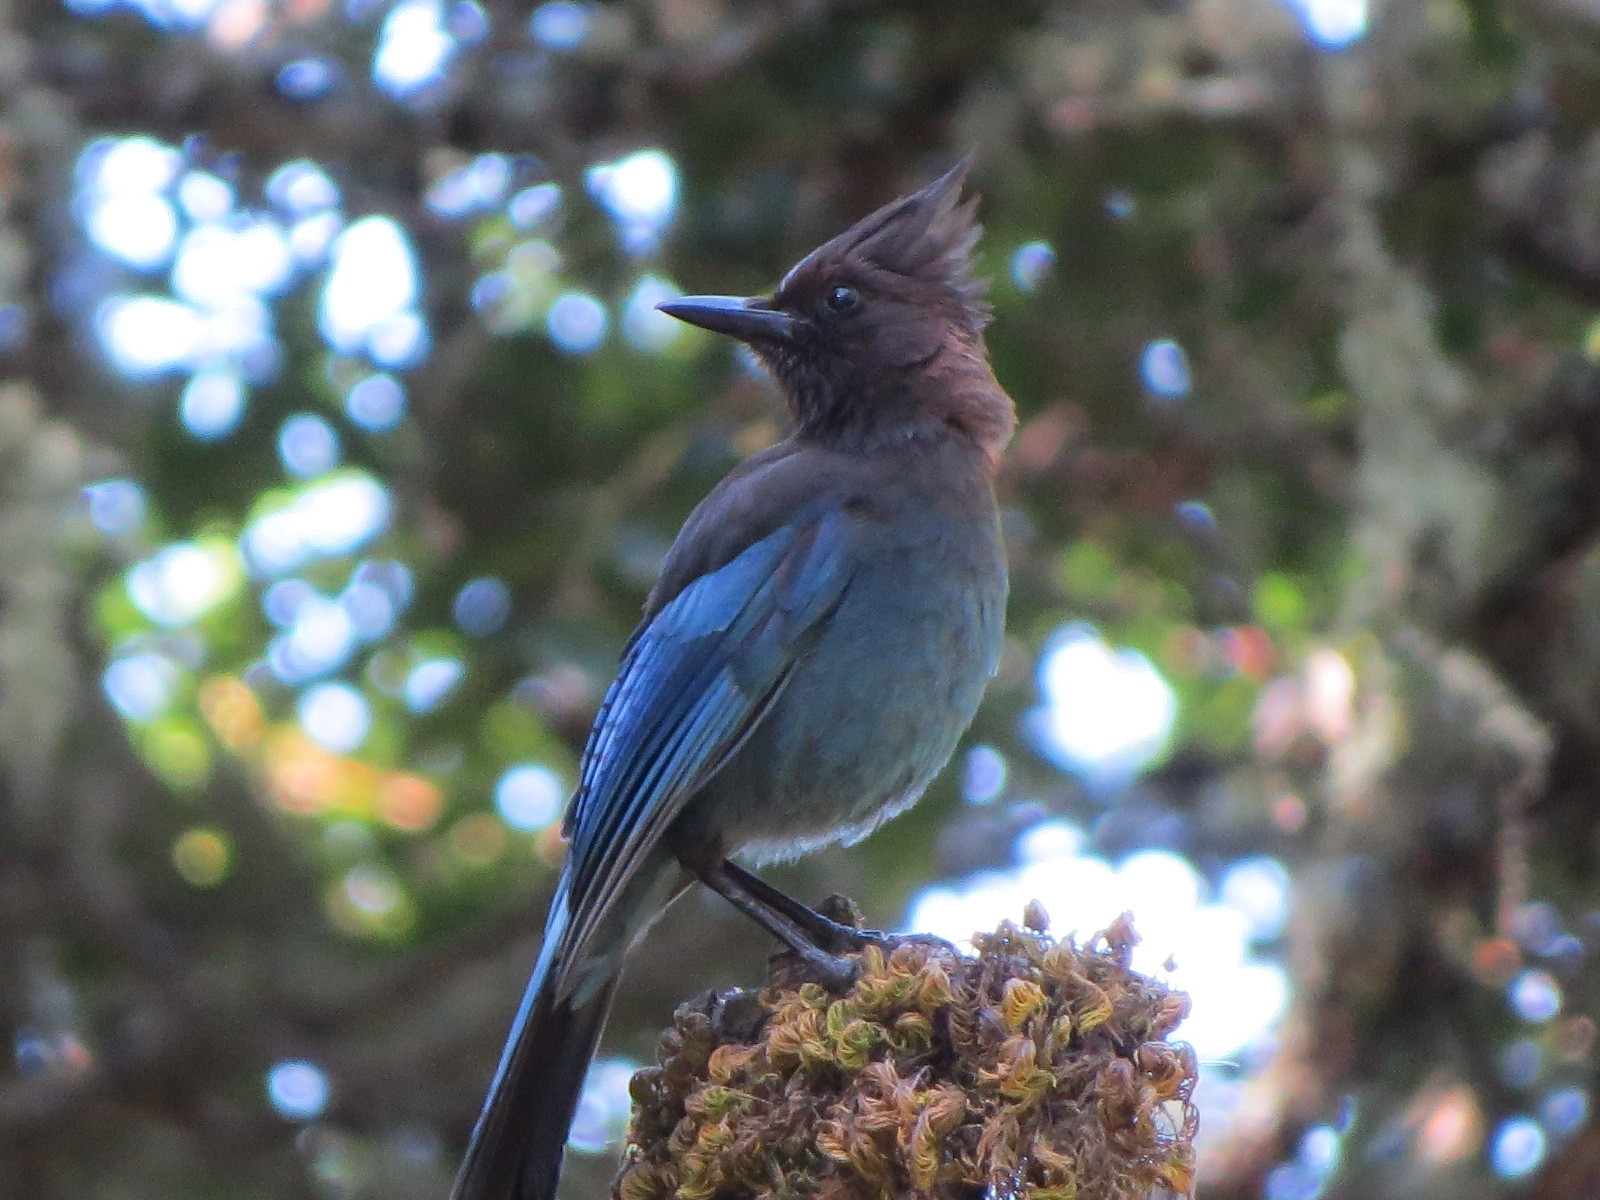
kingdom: Animalia
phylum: Chordata
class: Aves
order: Passeriformes
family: Corvidae
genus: Cyanocitta
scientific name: Cyanocitta stelleri
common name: Steller's jay
